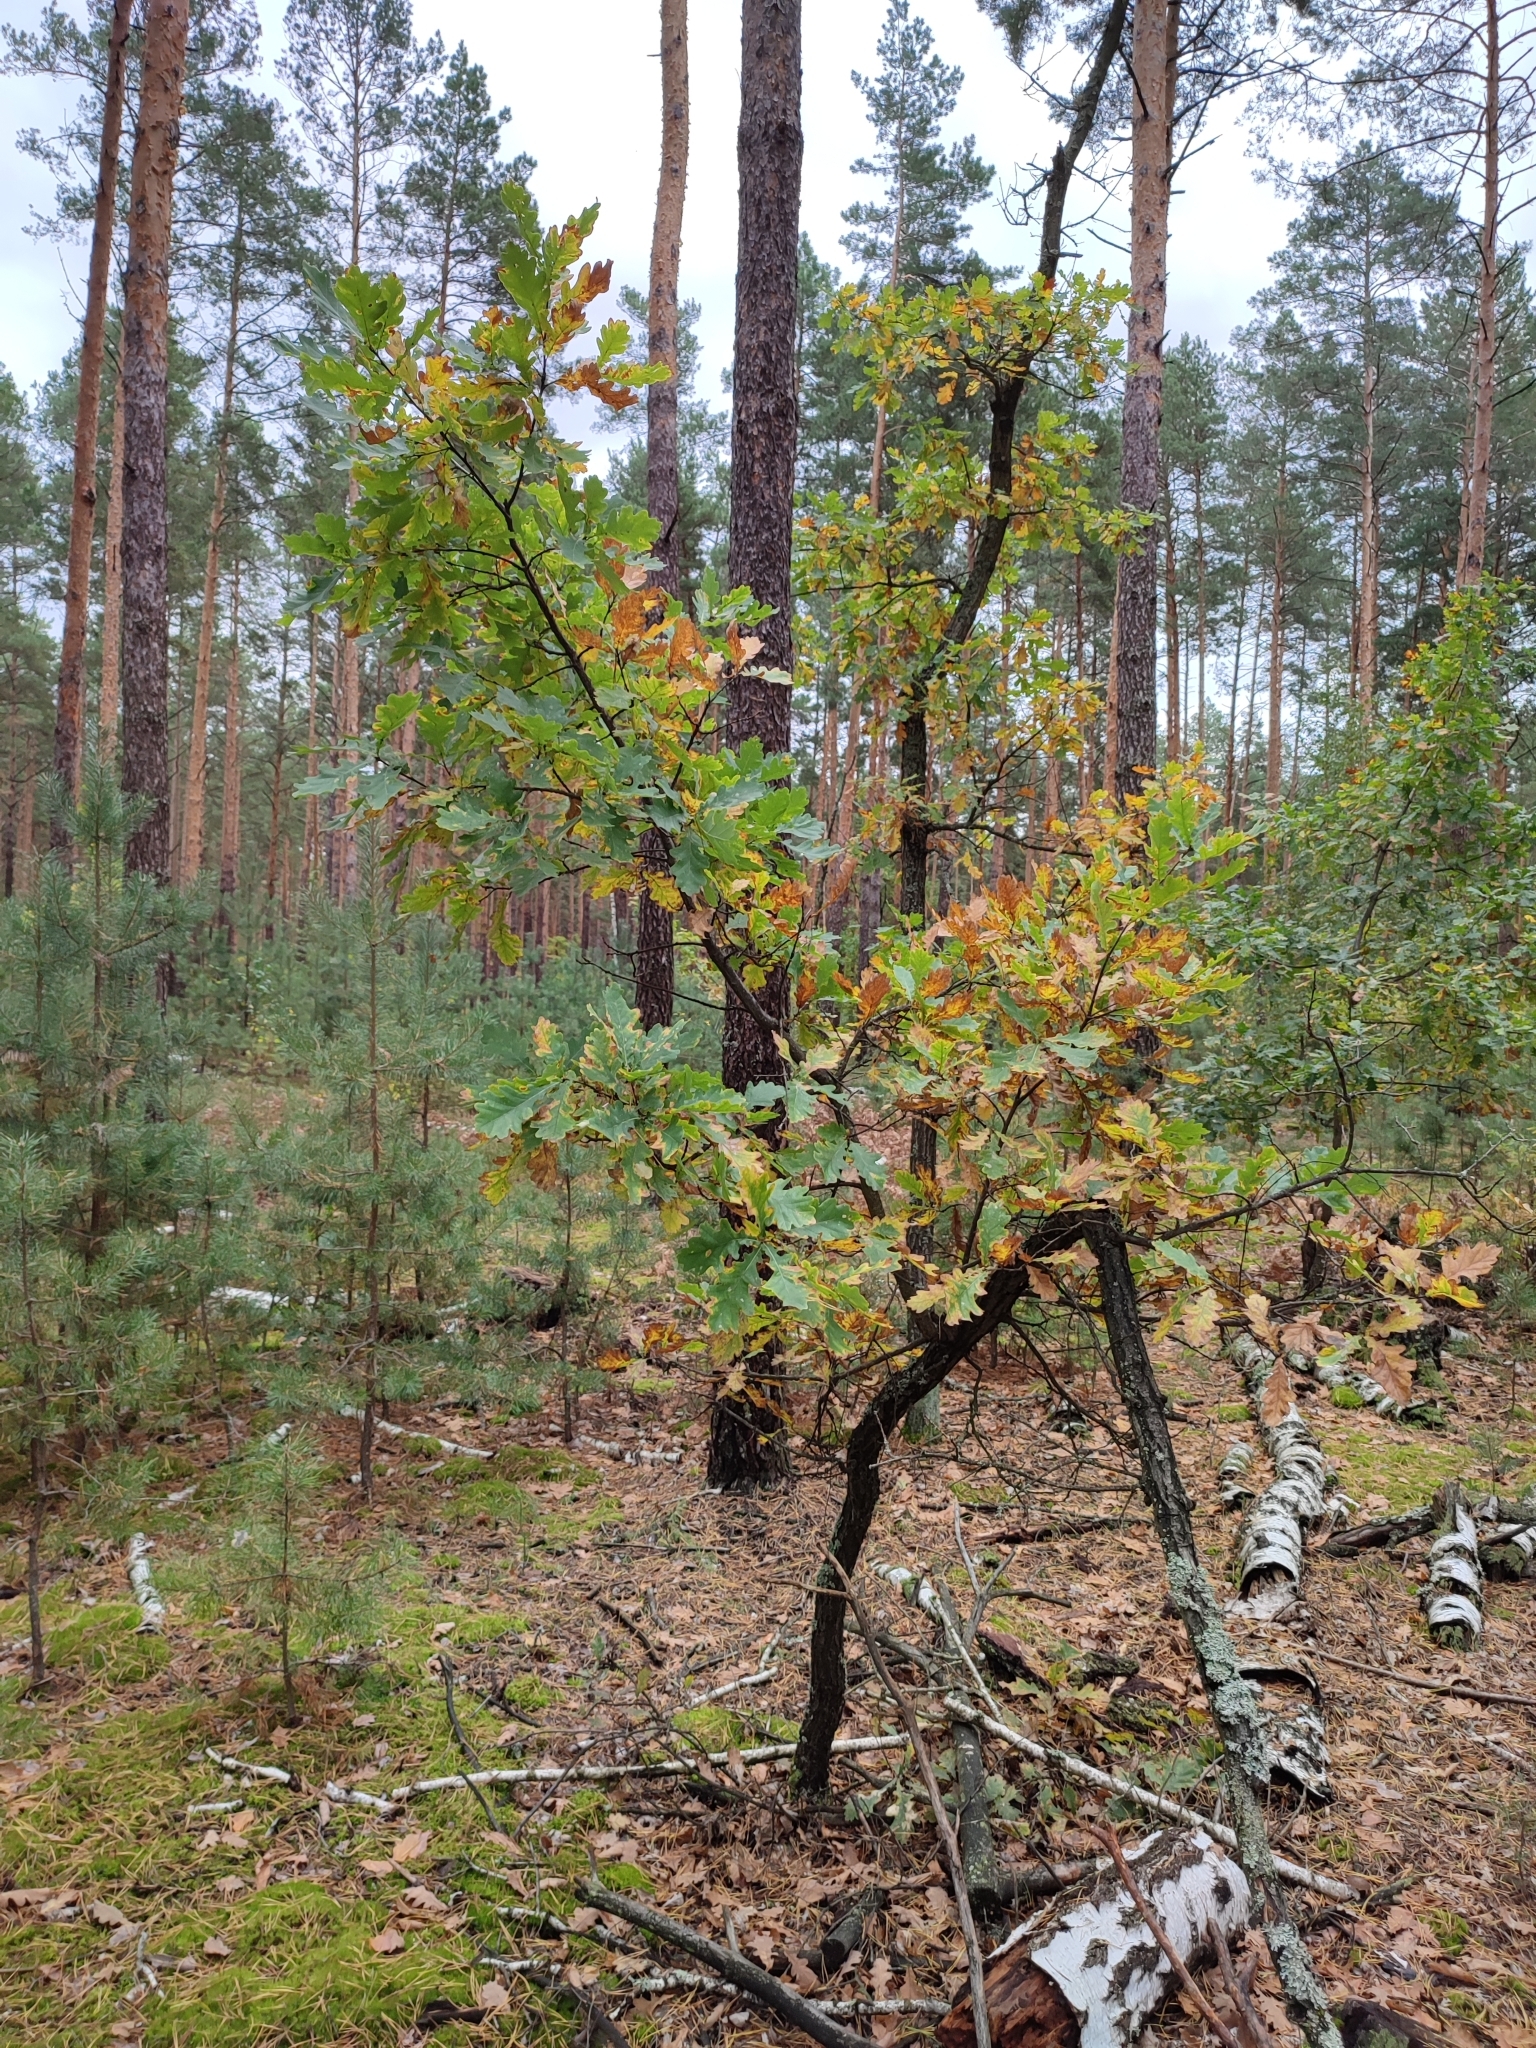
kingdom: Plantae
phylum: Tracheophyta
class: Magnoliopsida
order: Fagales
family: Fagaceae
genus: Quercus
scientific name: Quercus robur
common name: Pedunculate oak
